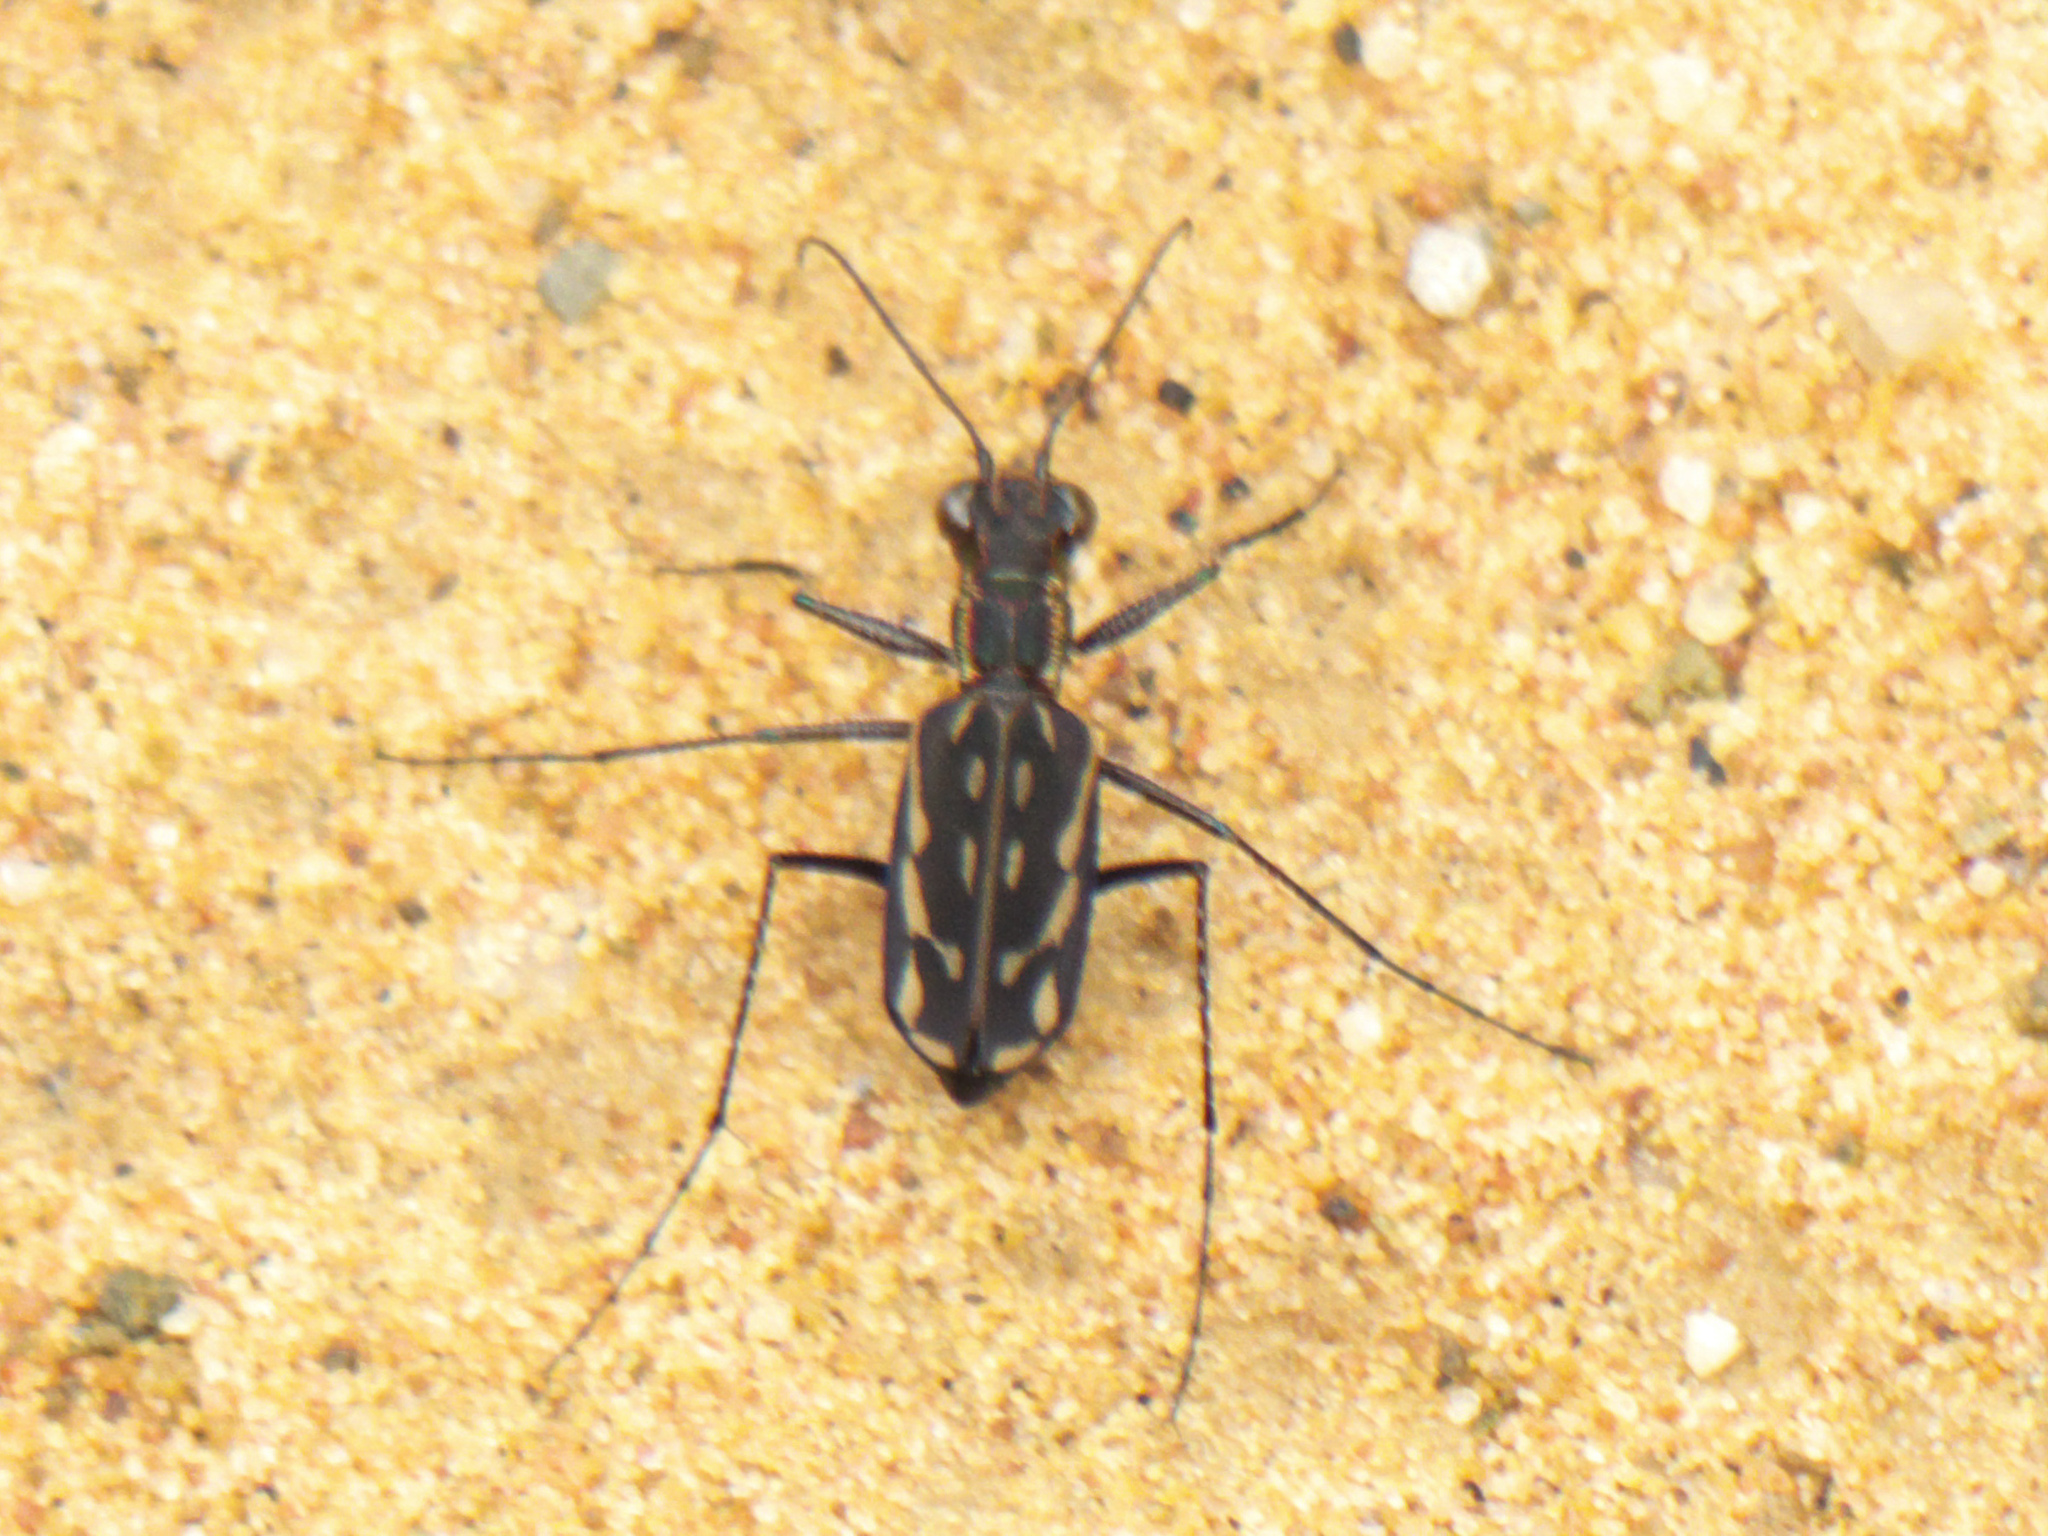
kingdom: Animalia
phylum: Arthropoda
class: Insecta
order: Coleoptera
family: Carabidae
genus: Lophyra
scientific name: Lophyra striolata
